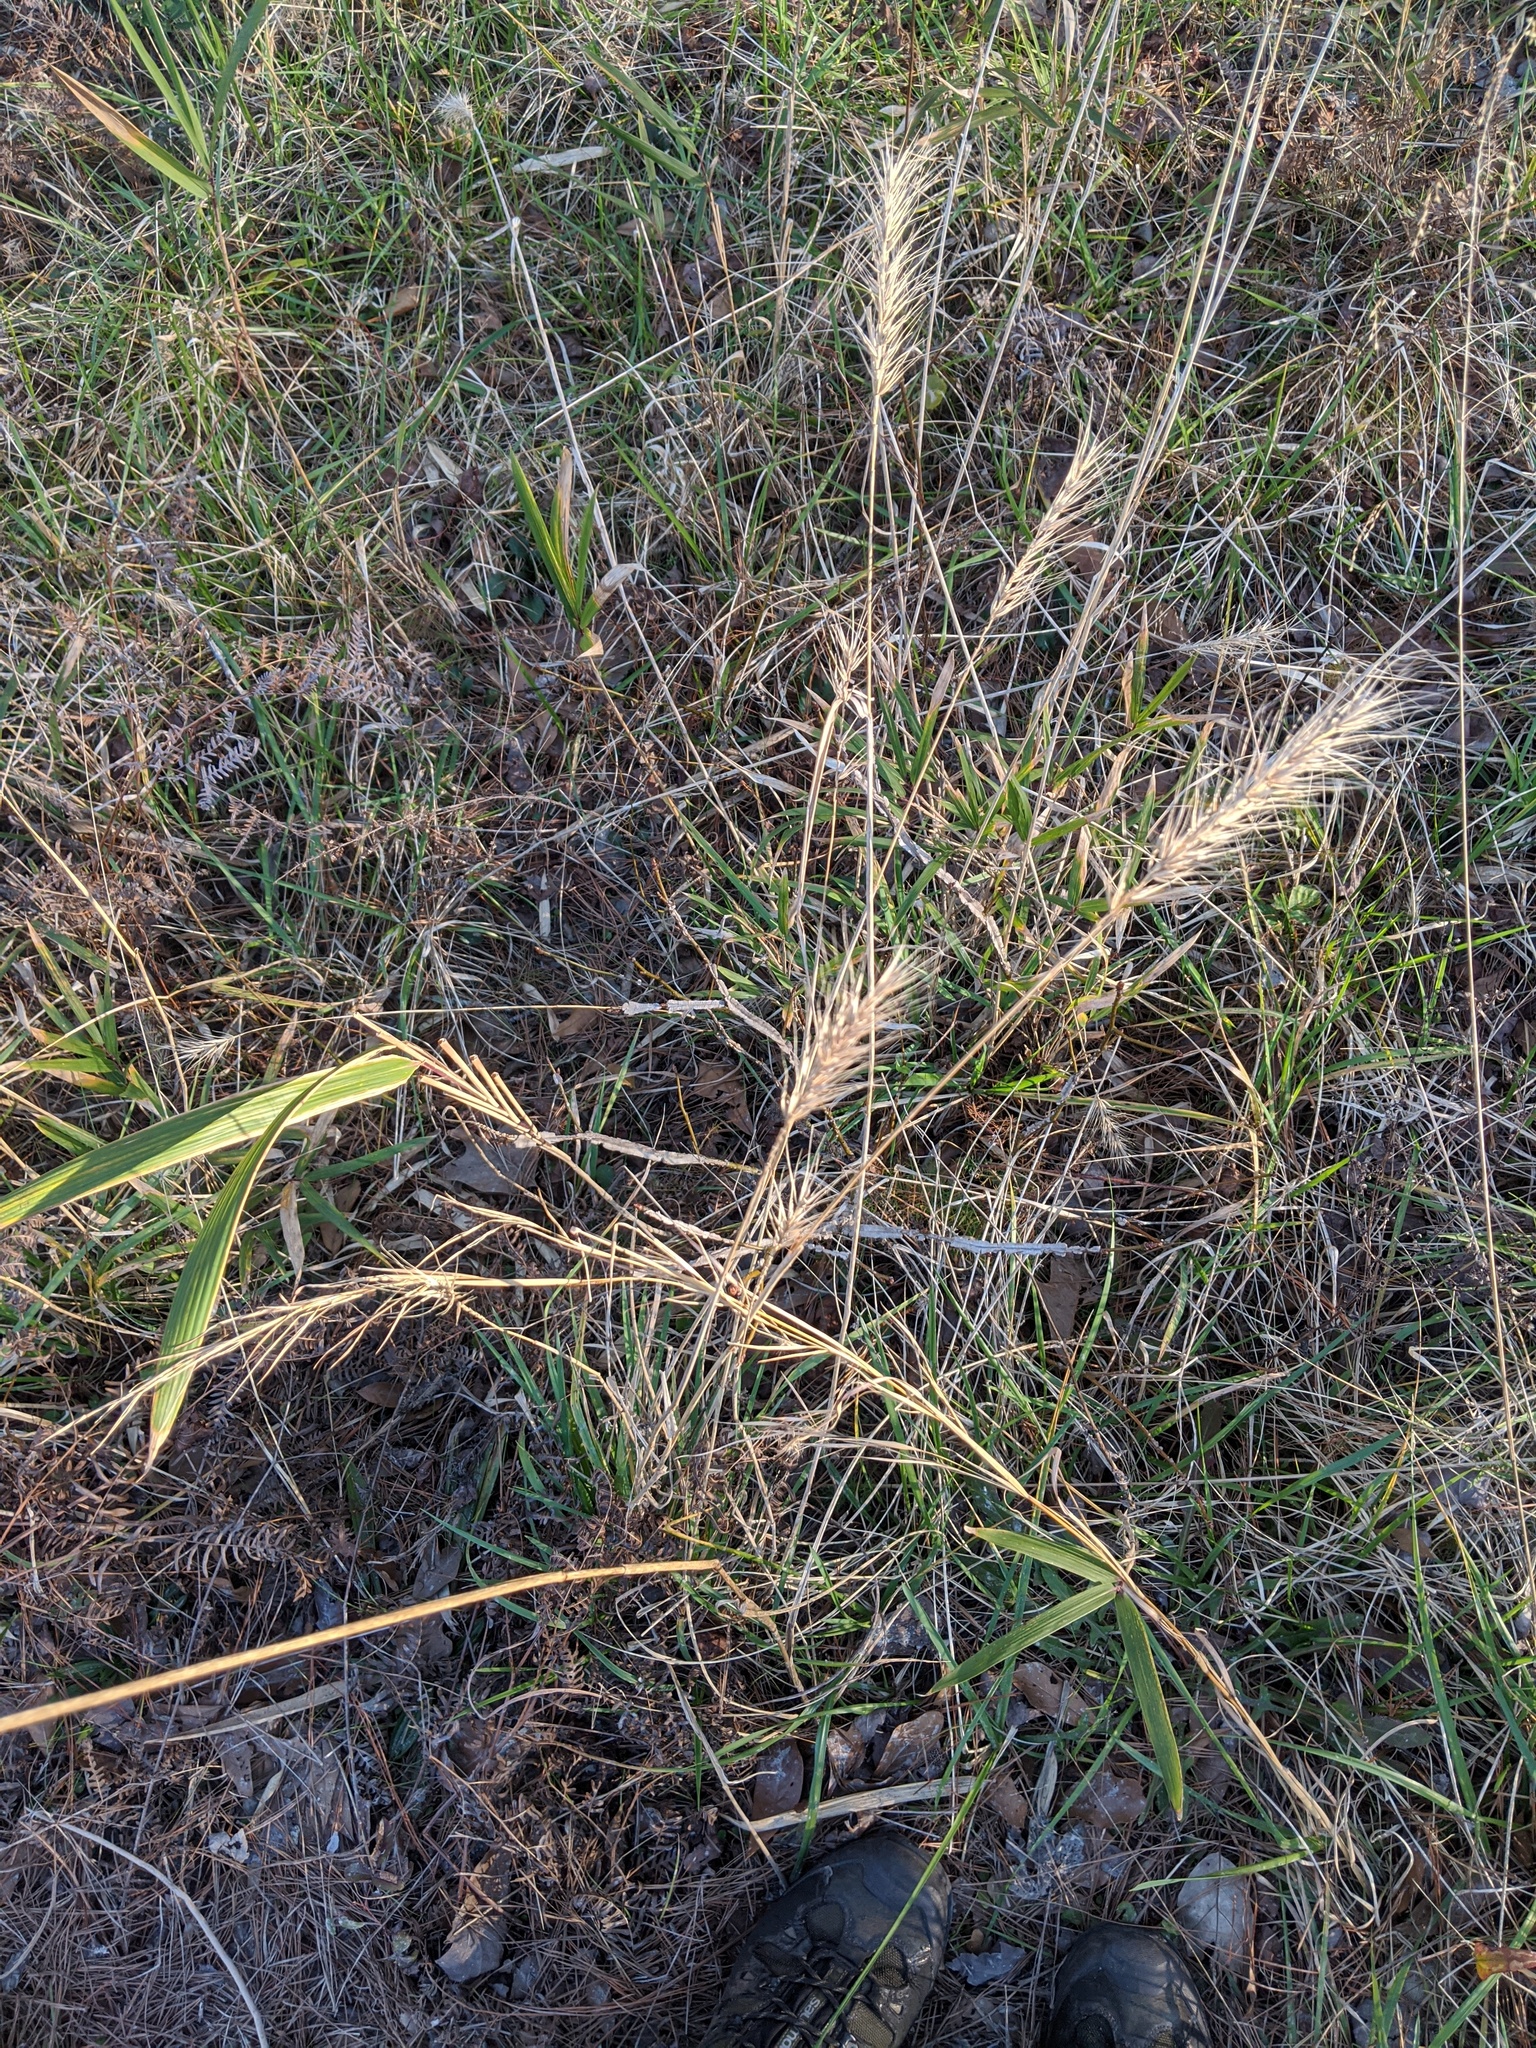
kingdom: Plantae
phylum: Tracheophyta
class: Liliopsida
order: Poales
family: Poaceae
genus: Elymus
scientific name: Elymus virginicus
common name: Common eastern wildrye
